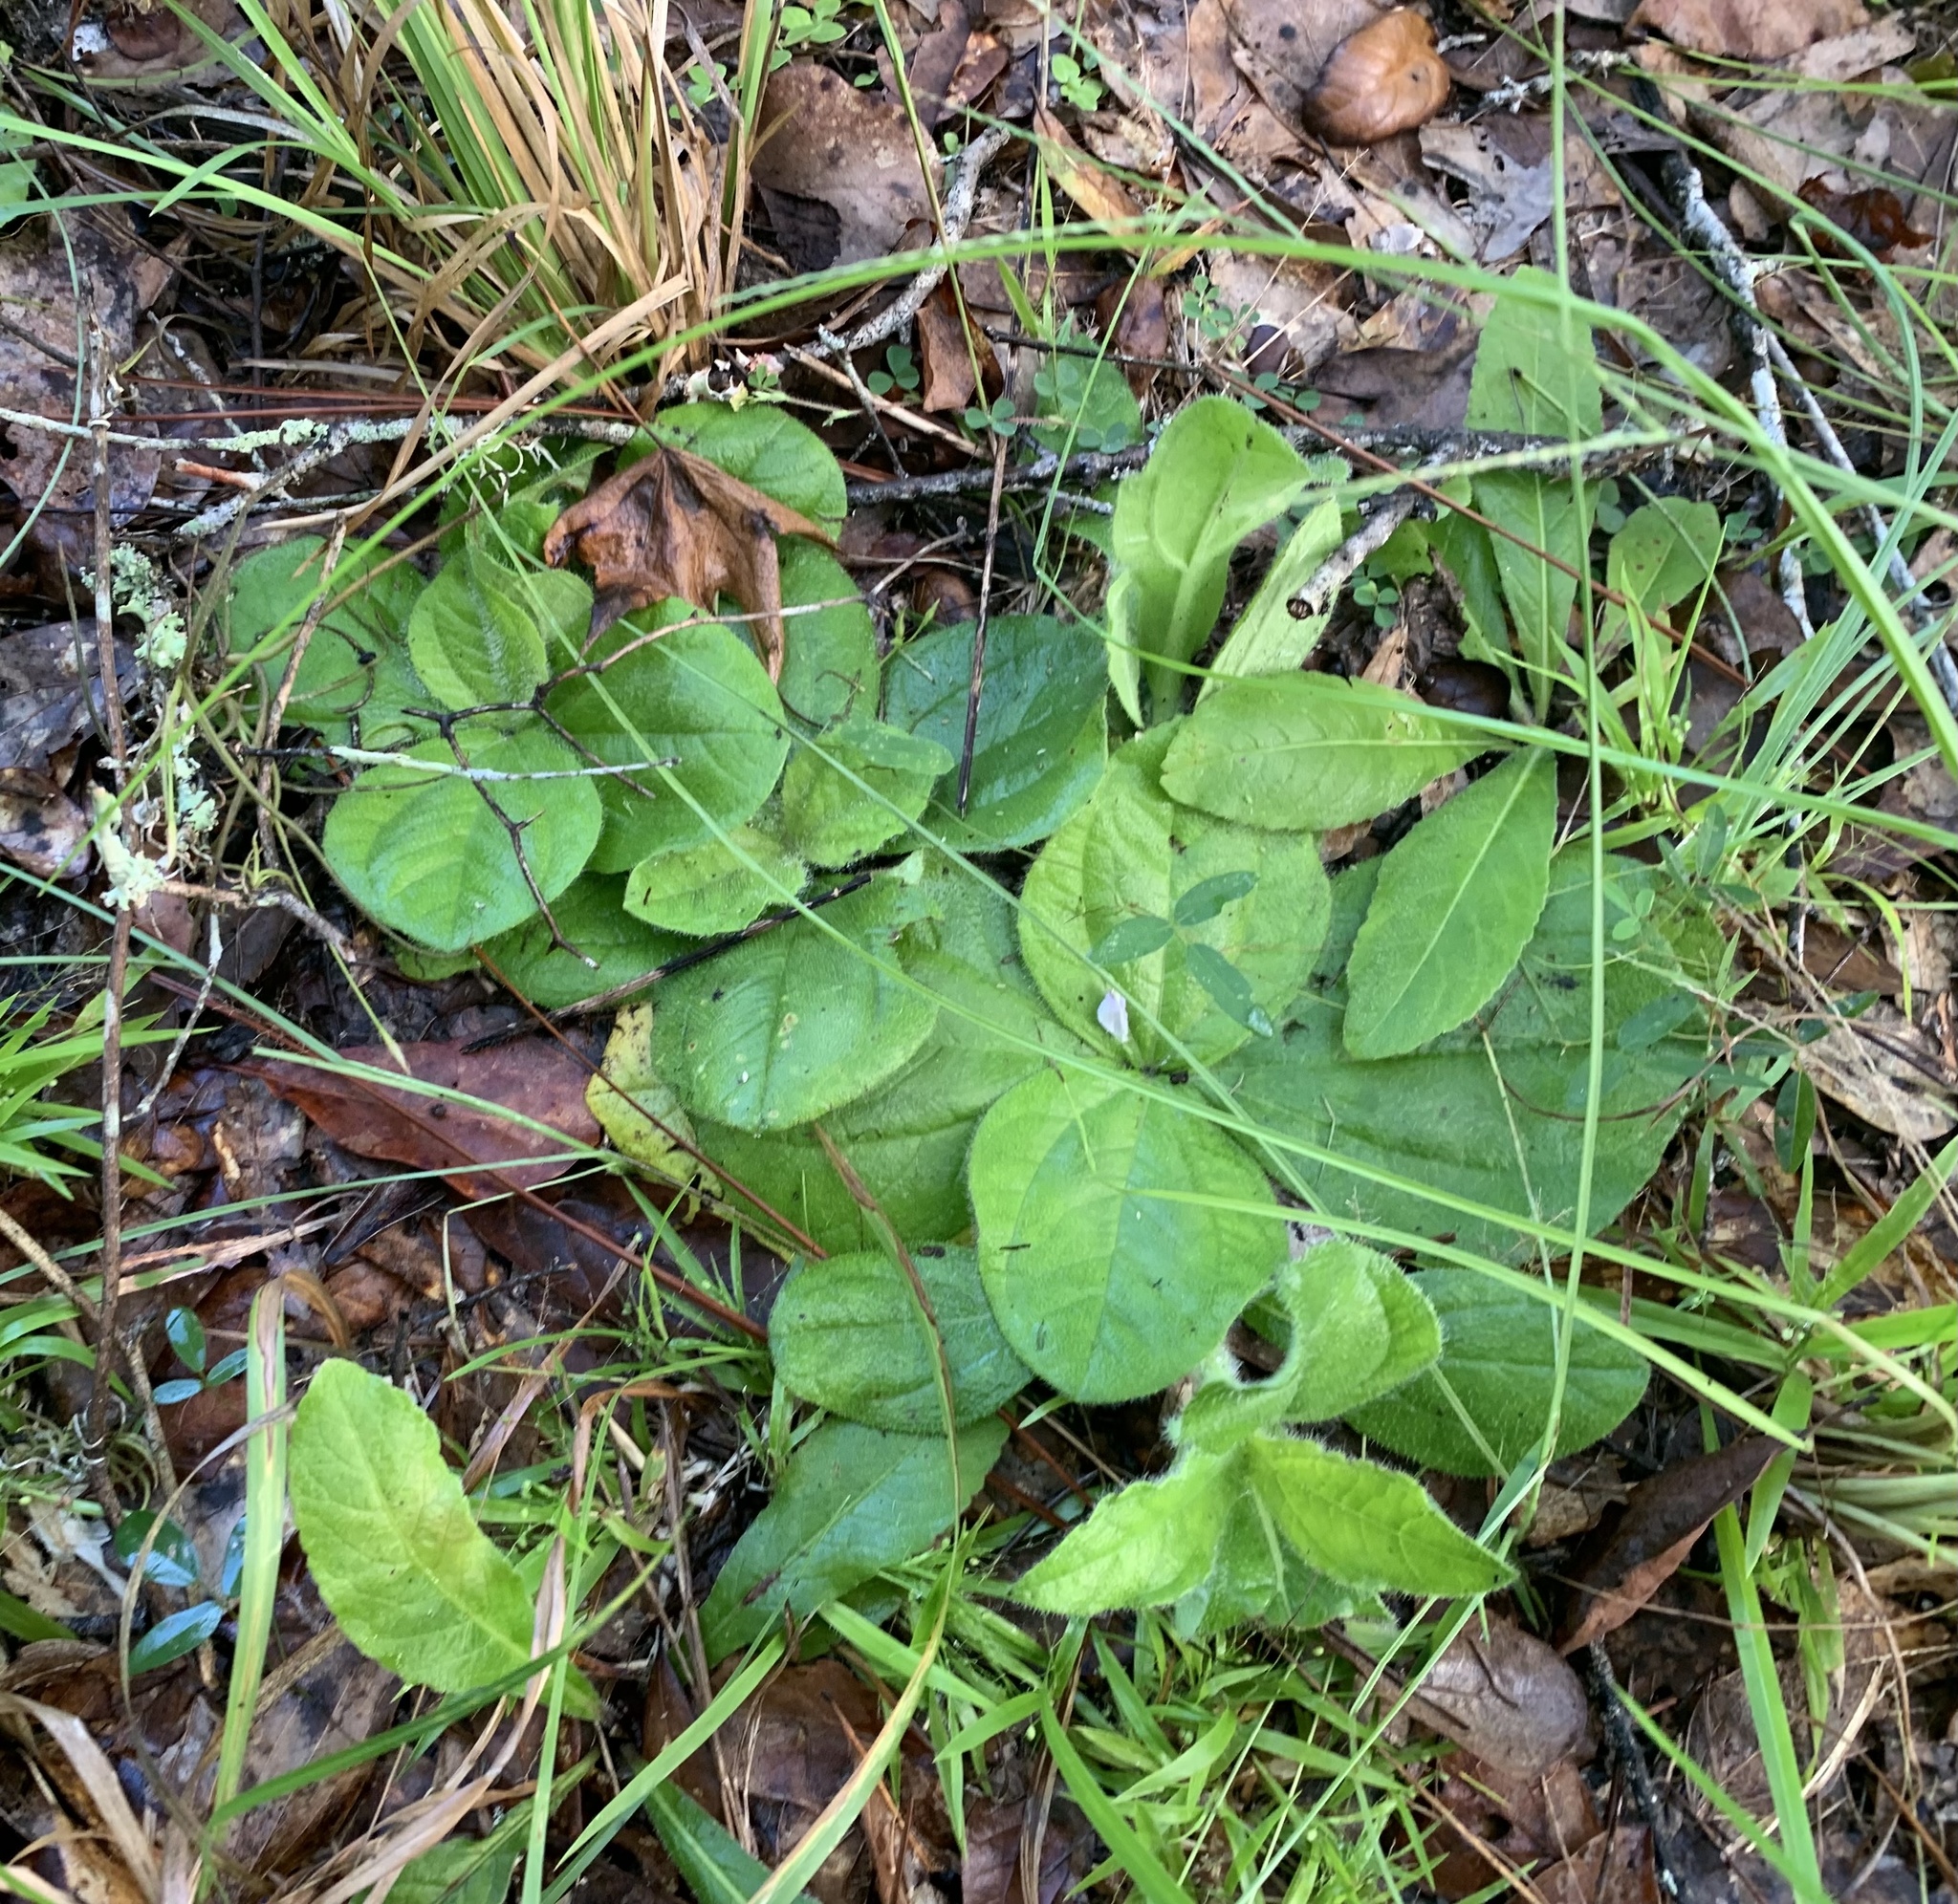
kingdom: Plantae
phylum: Tracheophyta
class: Magnoliopsida
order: Asterales
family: Asteraceae
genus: Helianthus
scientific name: Helianthus radula
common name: Pineland sunflower
